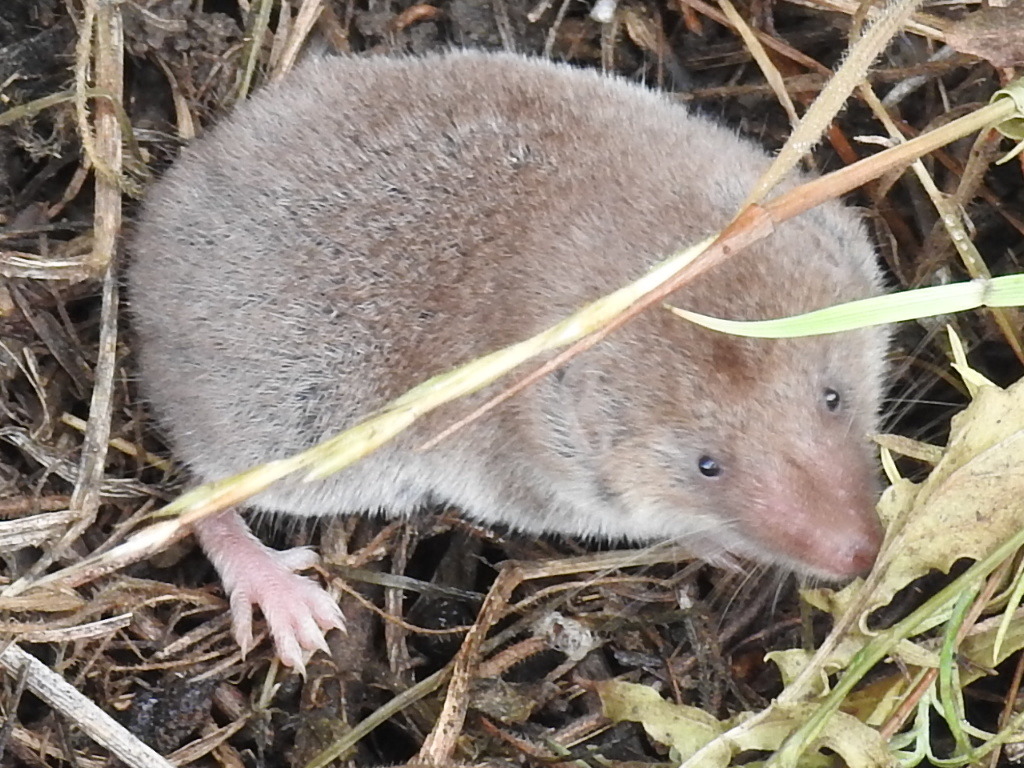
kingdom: Animalia
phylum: Chordata
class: Mammalia
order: Soricomorpha
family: Soricidae
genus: Cryptotis
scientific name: Cryptotis parva
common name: North american least shrew
